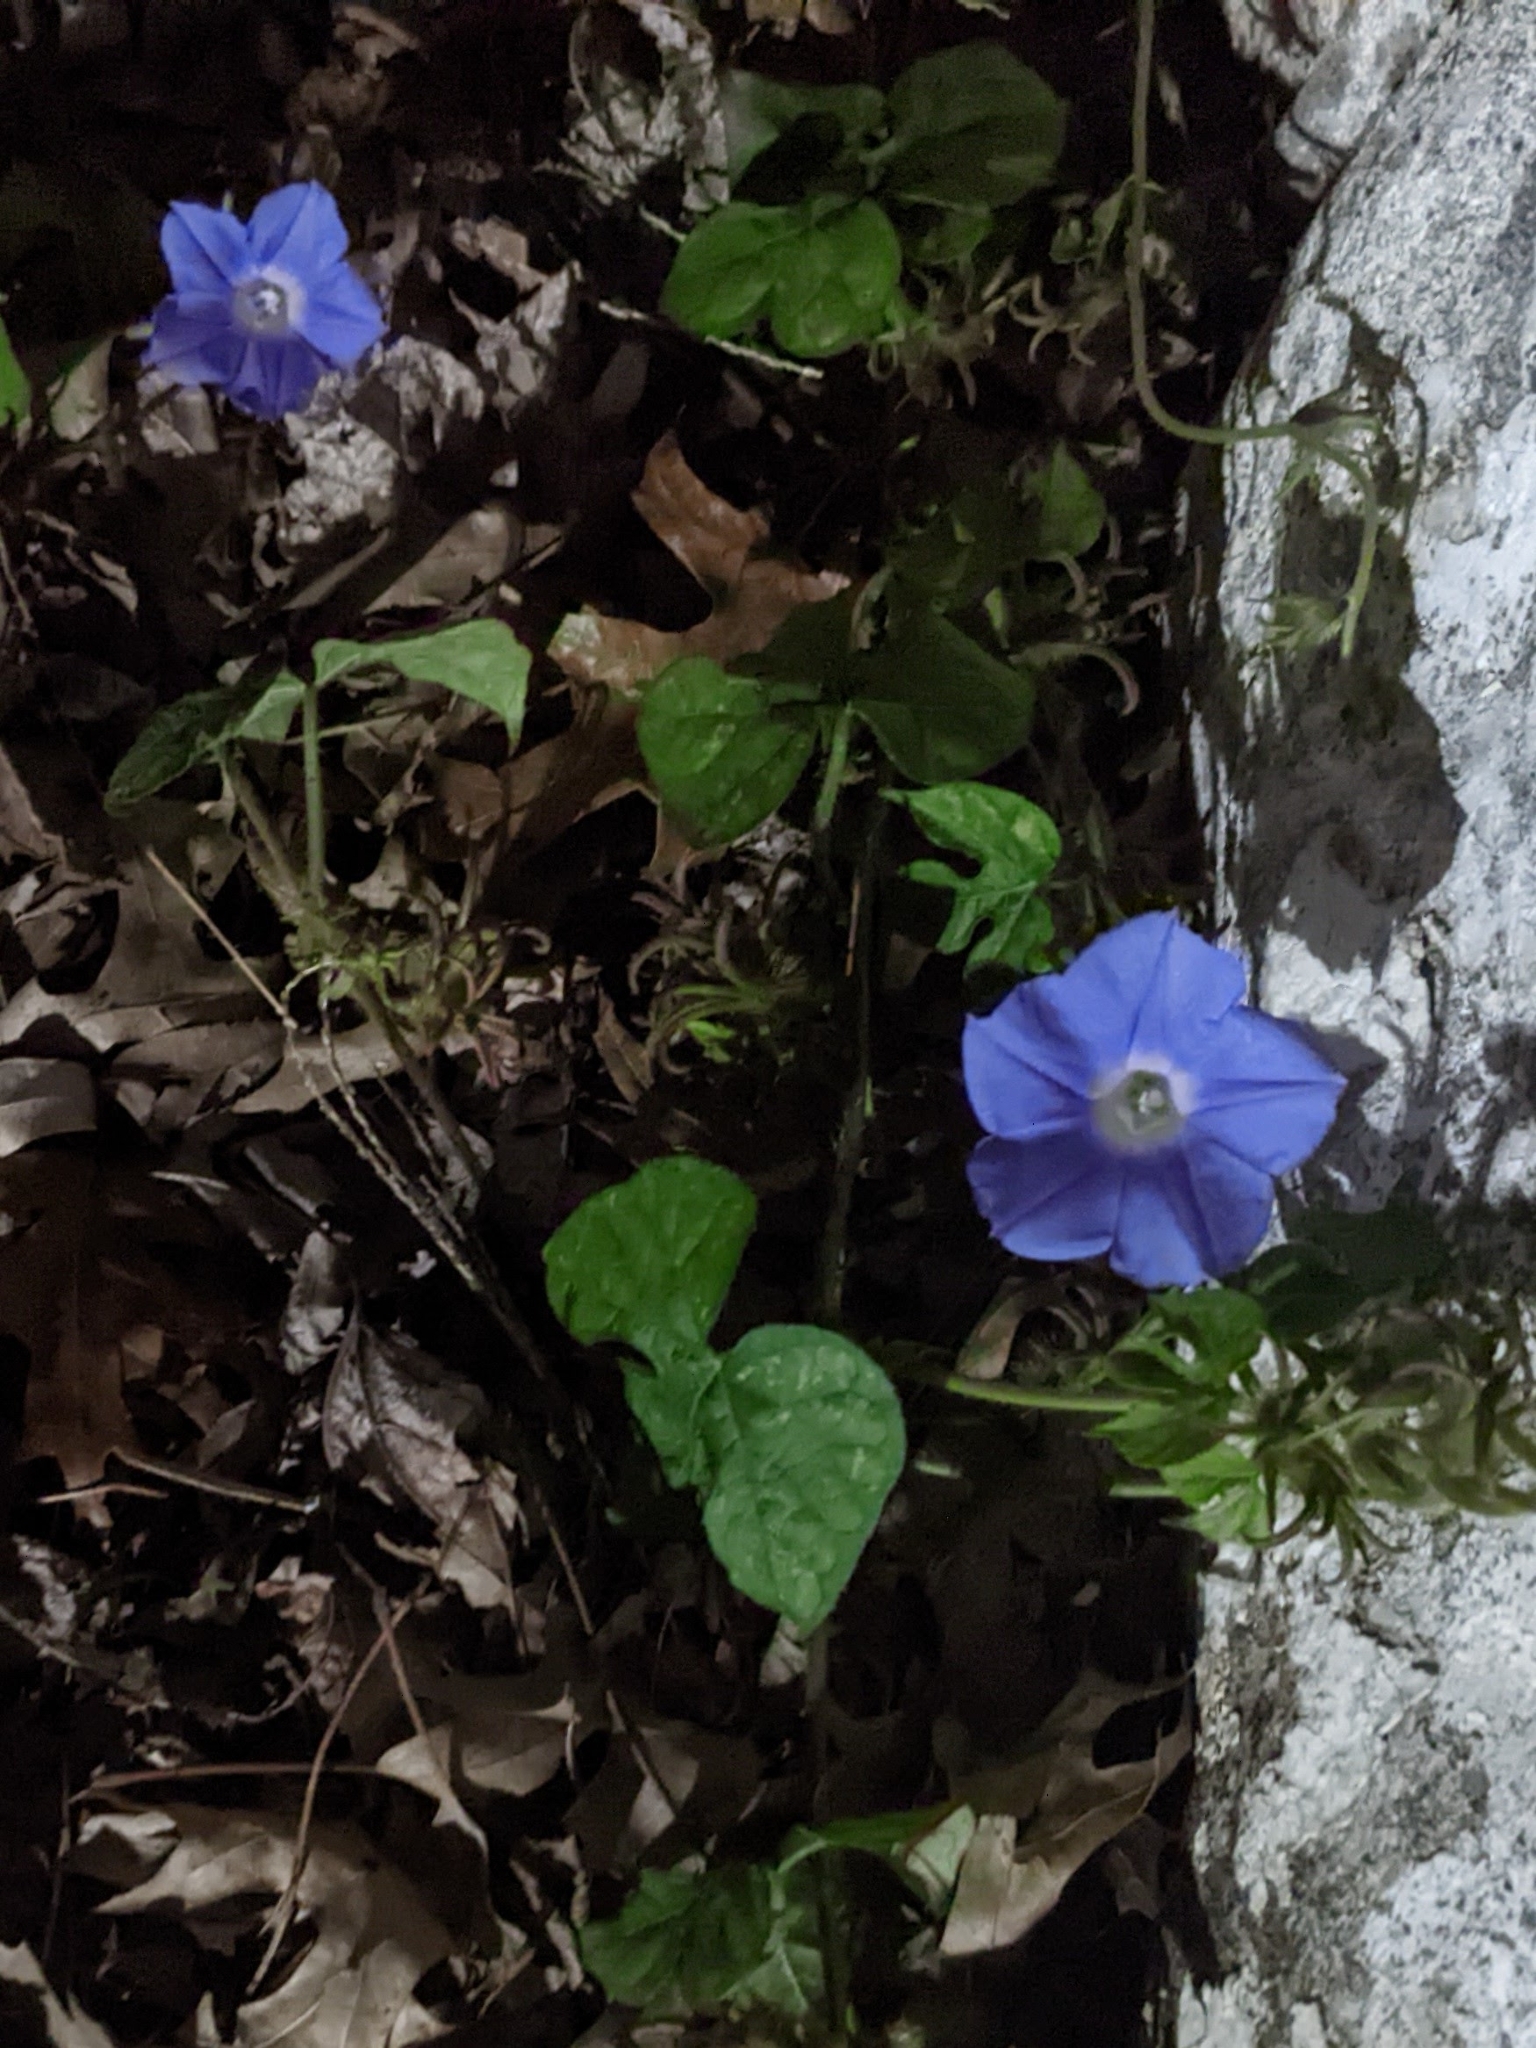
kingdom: Plantae
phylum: Tracheophyta
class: Magnoliopsida
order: Solanales
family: Convolvulaceae
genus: Ipomoea
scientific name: Ipomoea hederacea
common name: Ivy-leaved morning-glory
